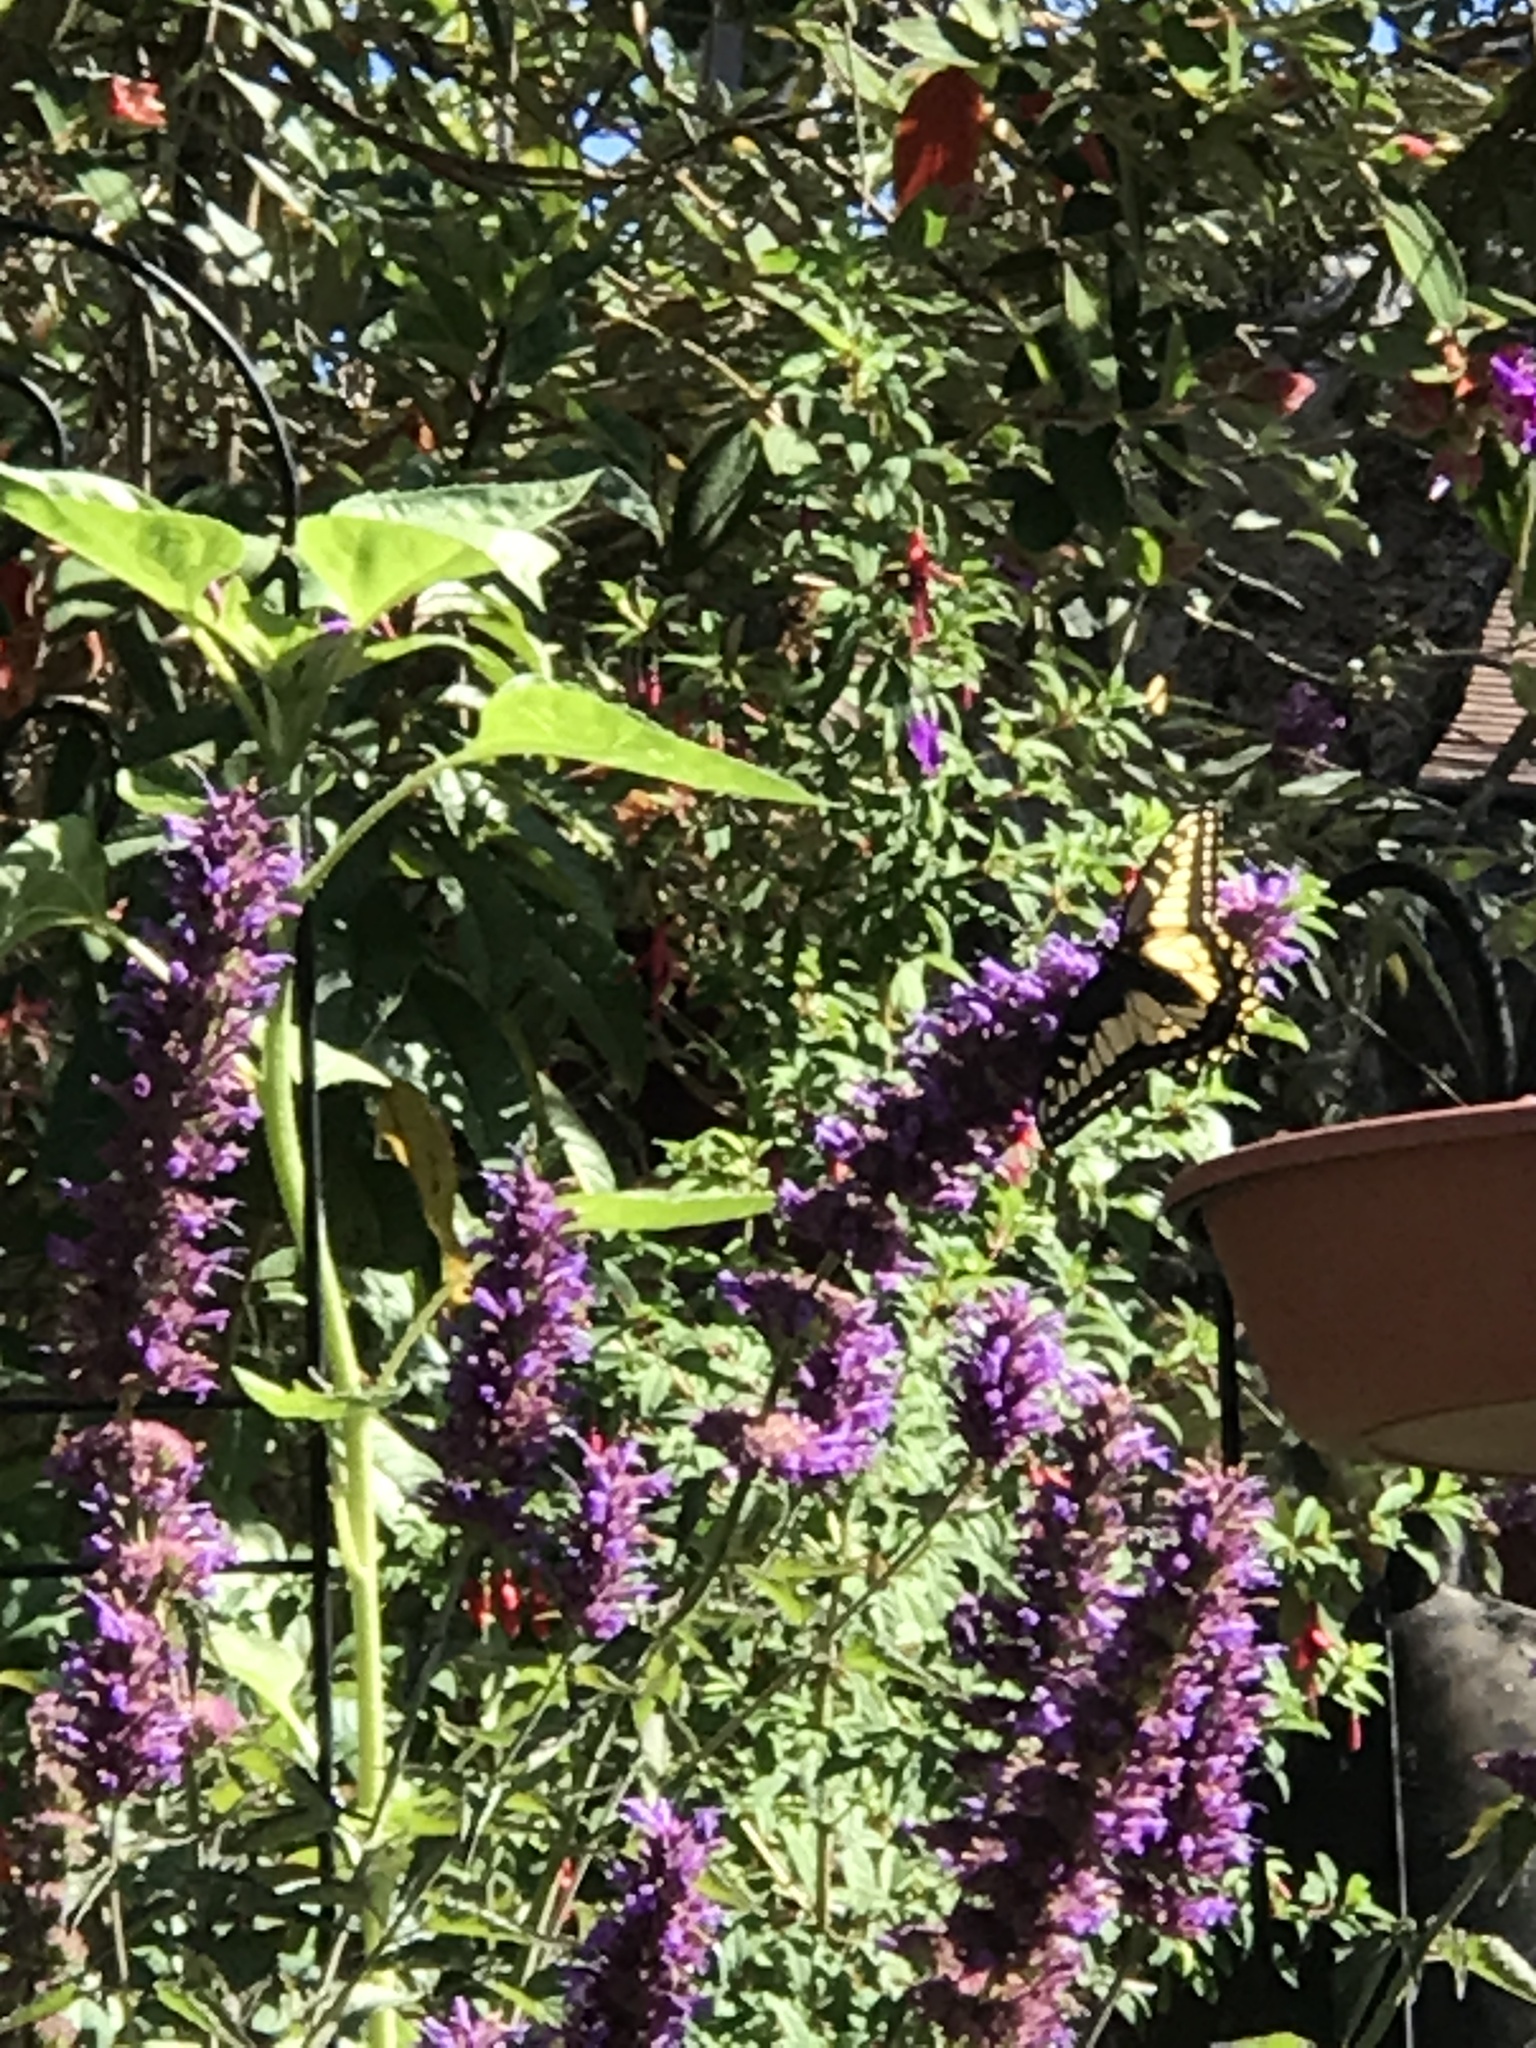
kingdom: Animalia
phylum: Arthropoda
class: Insecta
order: Lepidoptera
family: Papilionidae
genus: Papilio
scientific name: Papilio zelicaon
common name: Anise swallowtail
